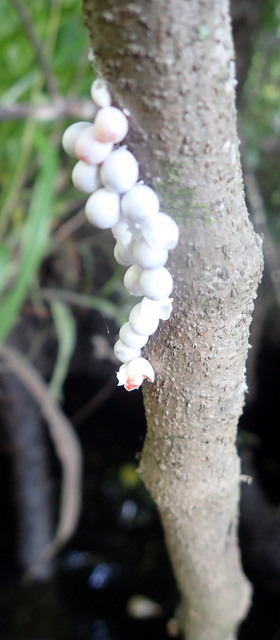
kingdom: Animalia
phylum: Mollusca
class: Gastropoda
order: Architaenioglossa
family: Ampullariidae
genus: Pomacea
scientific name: Pomacea paludosa
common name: Florida applesnail
